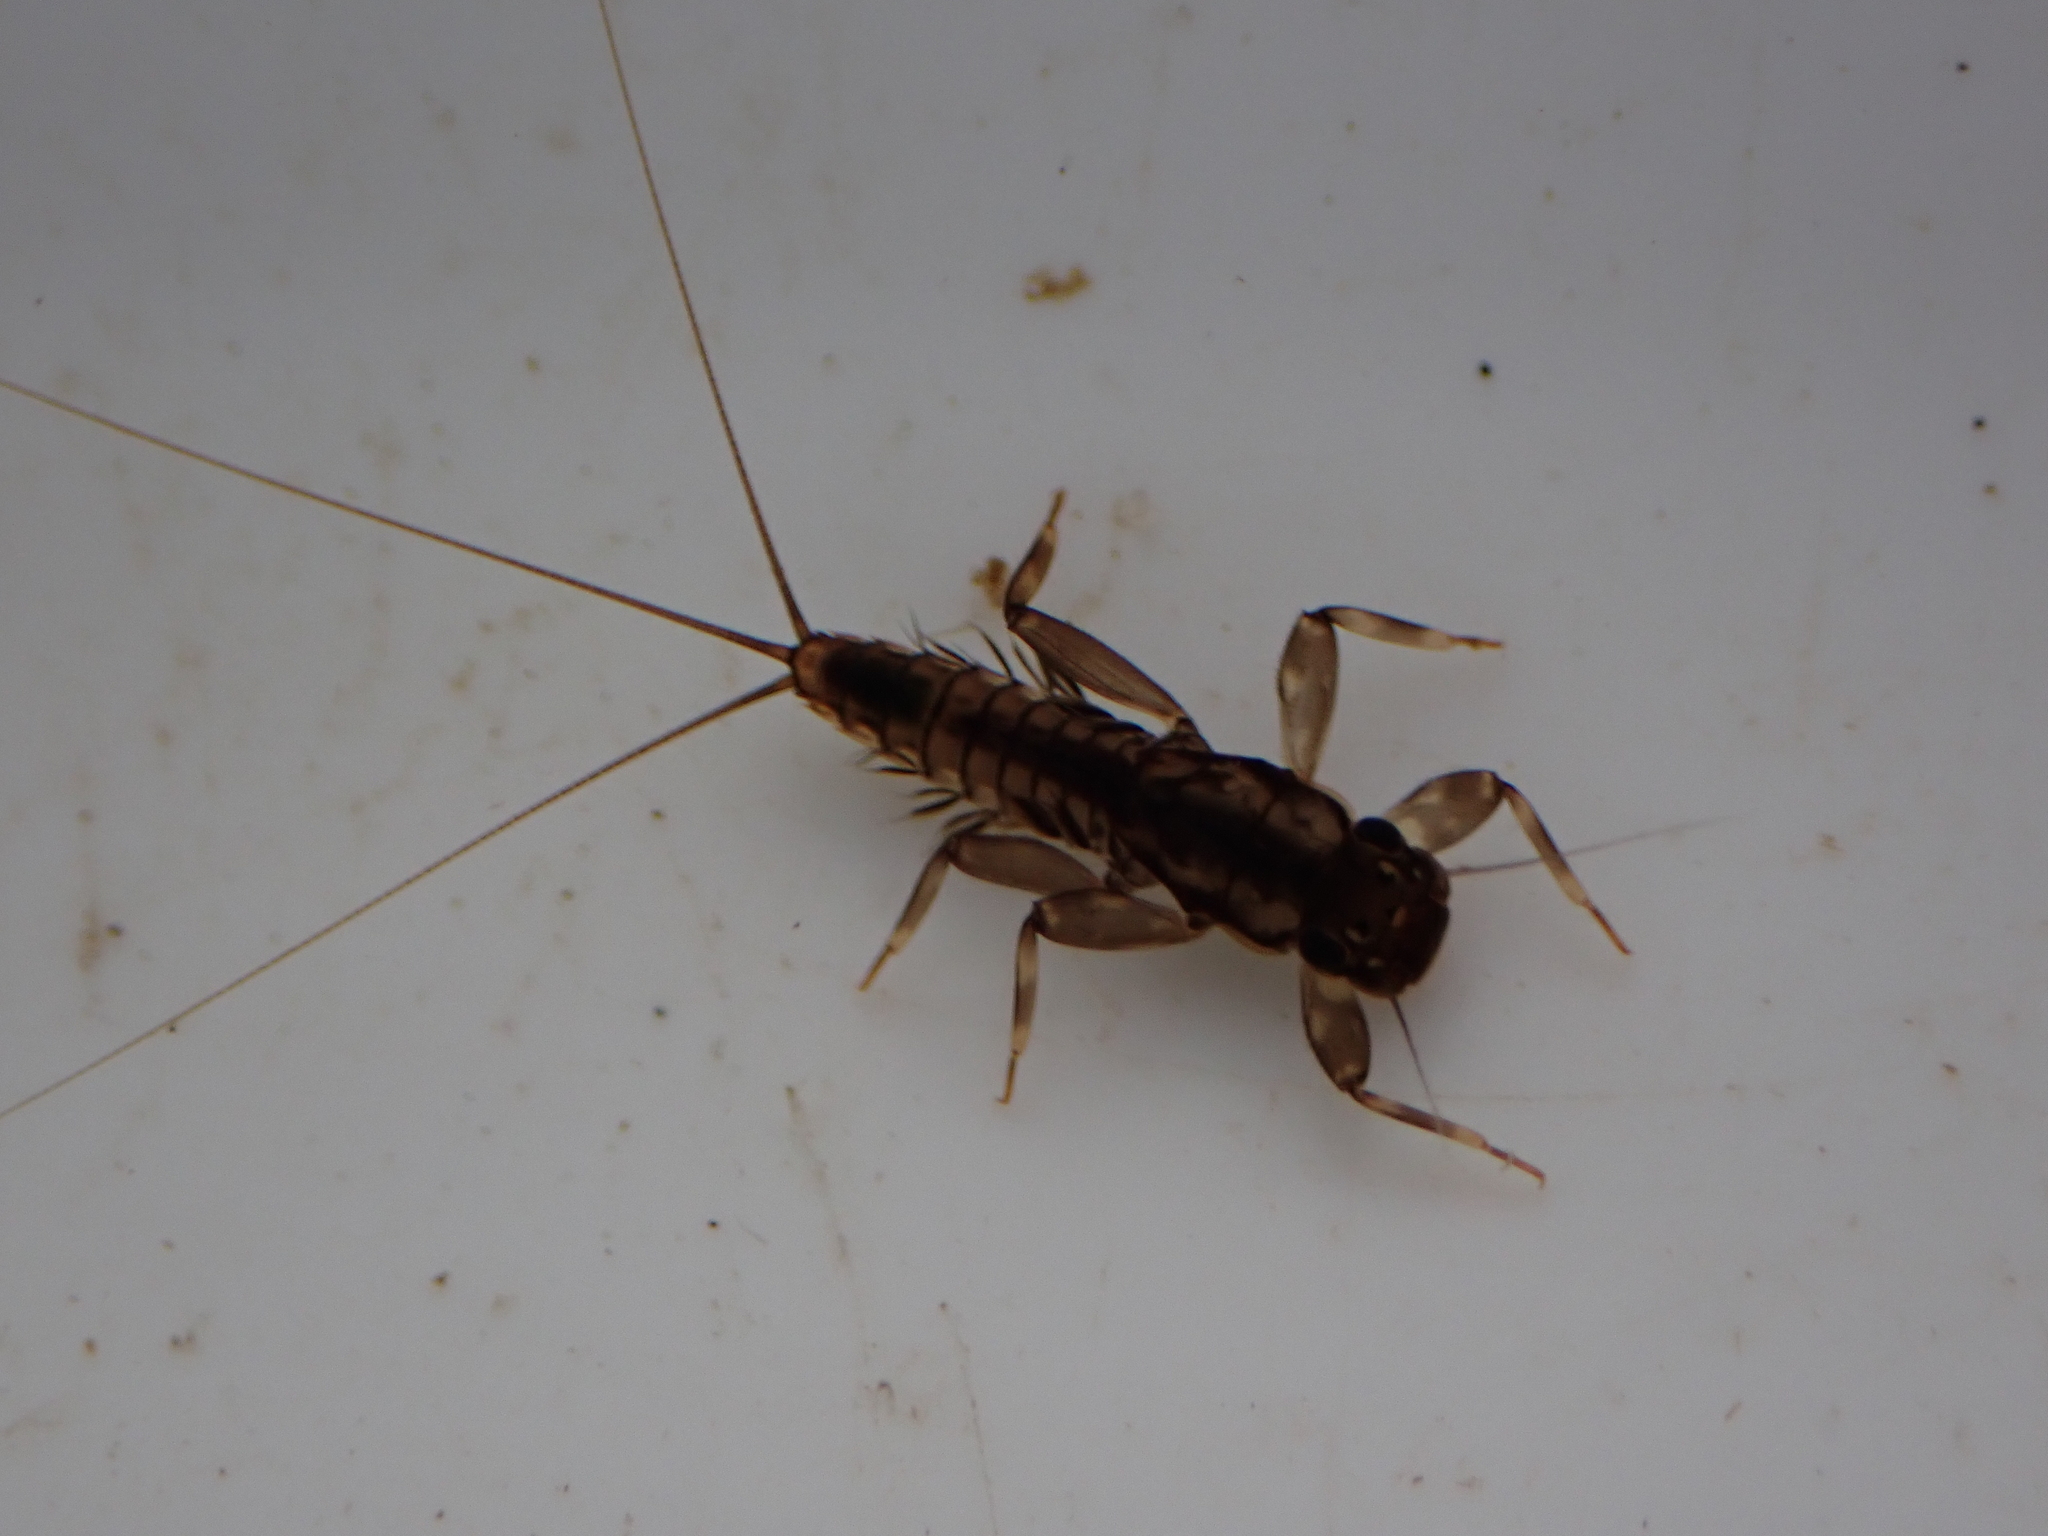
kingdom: Animalia
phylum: Arthropoda
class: Insecta
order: Ephemeroptera
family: Leptophlebiidae
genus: Austroclima
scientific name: Austroclima sepia
